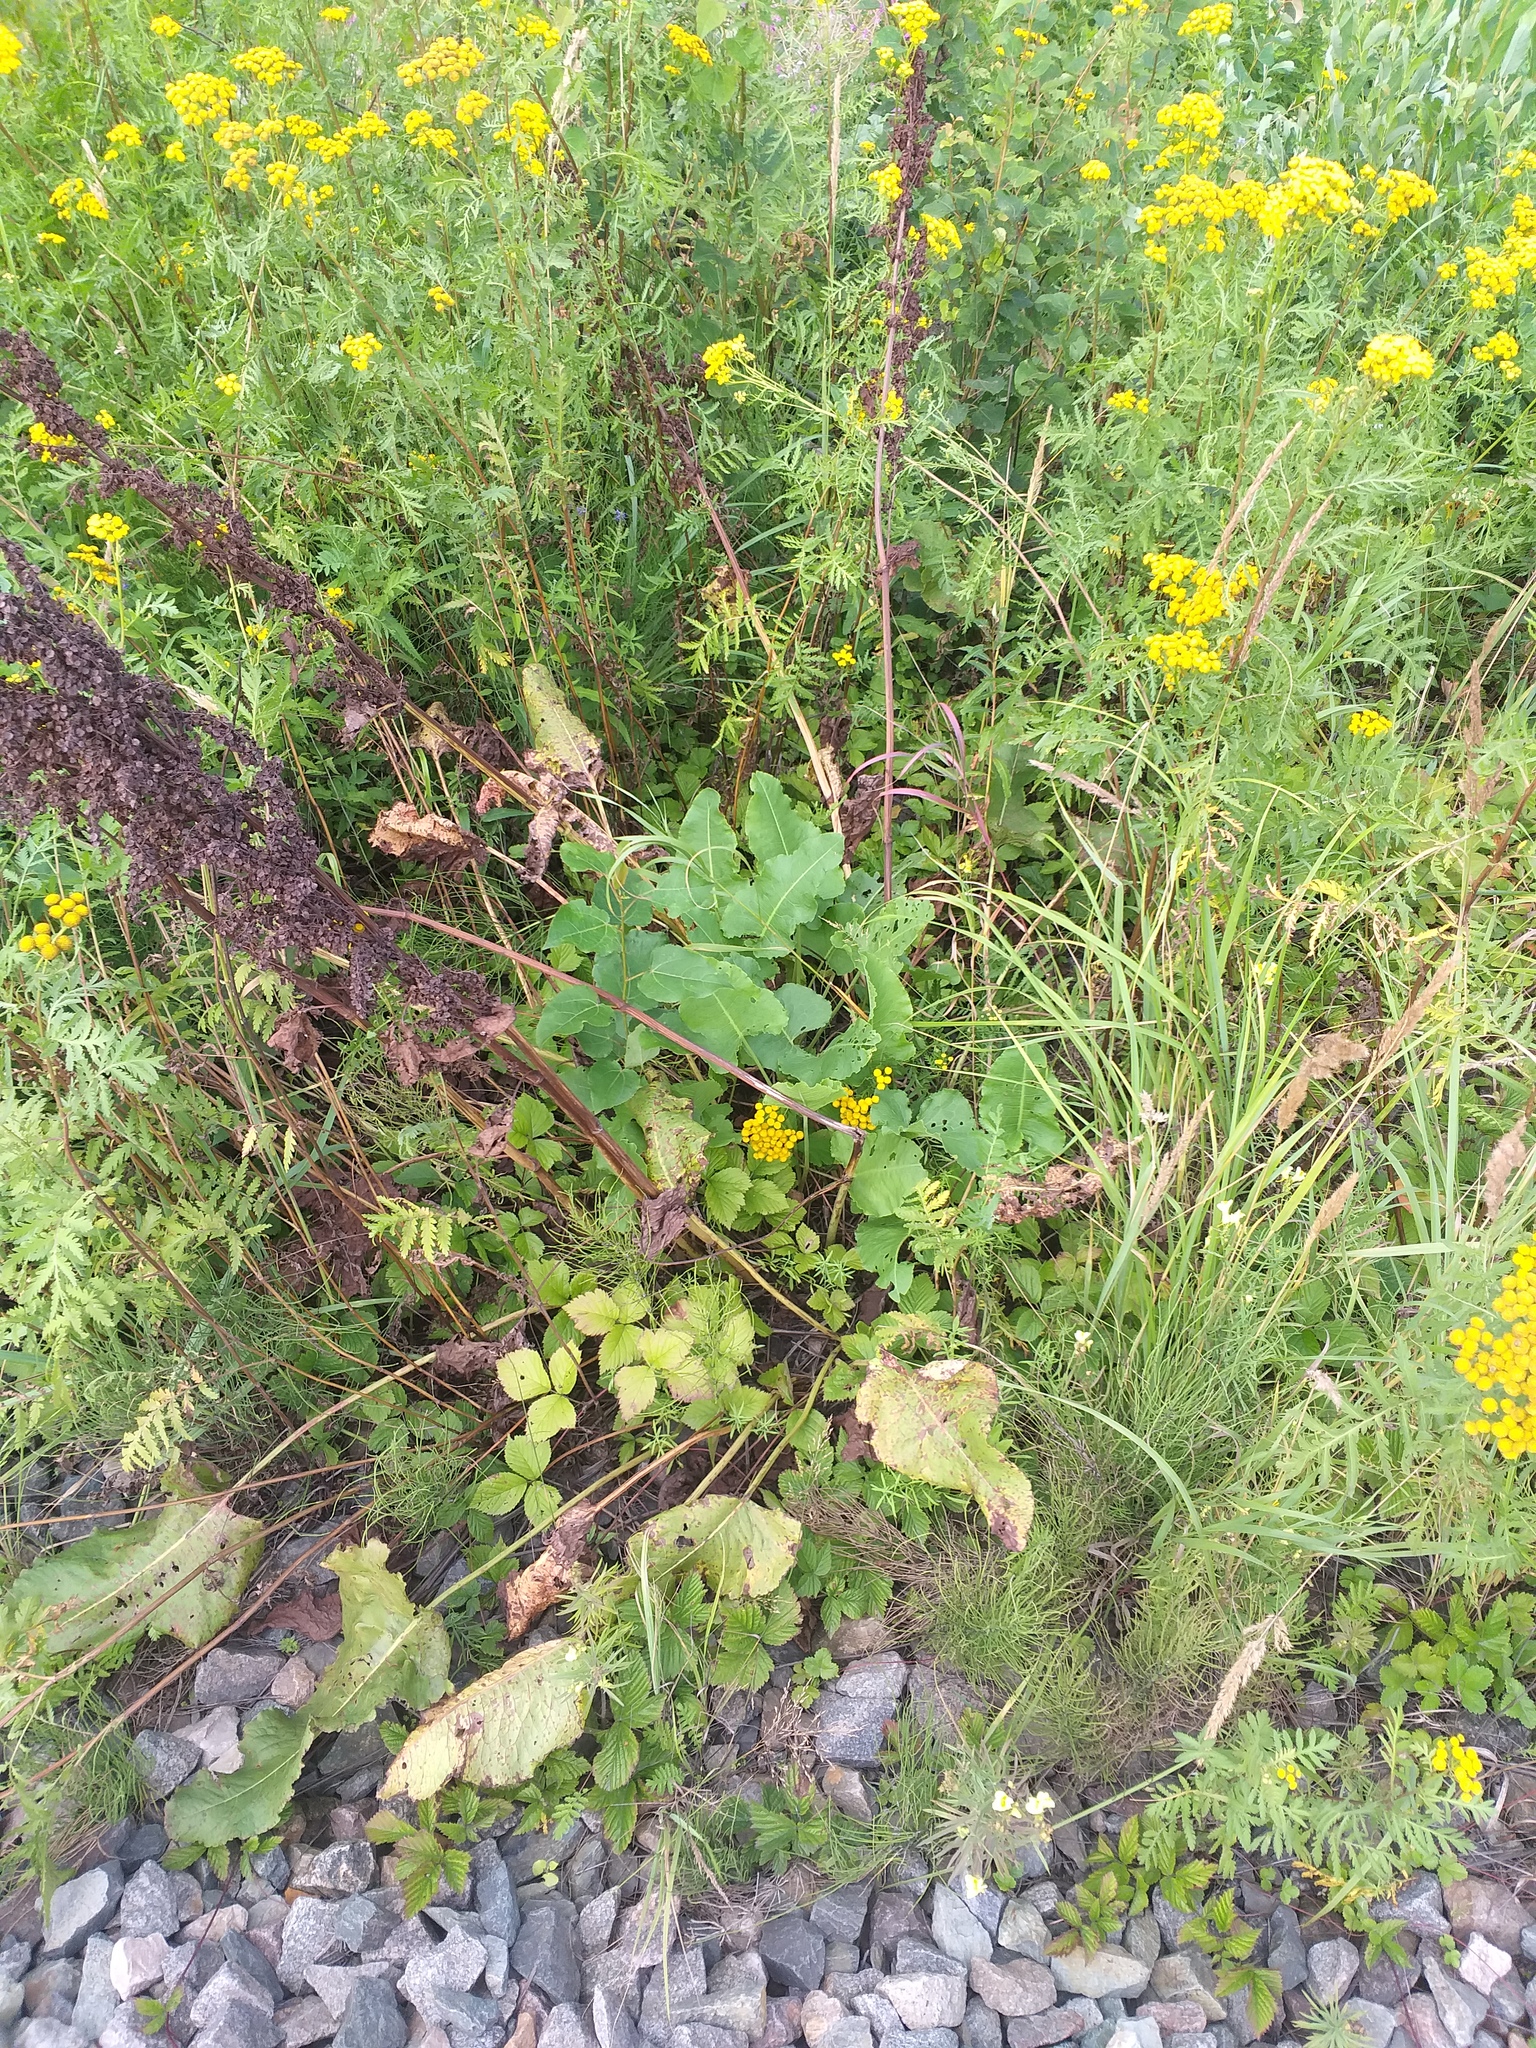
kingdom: Plantae
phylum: Tracheophyta
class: Magnoliopsida
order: Caryophyllales
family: Polygonaceae
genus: Rumex
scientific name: Rumex confertus
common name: Russian dock
